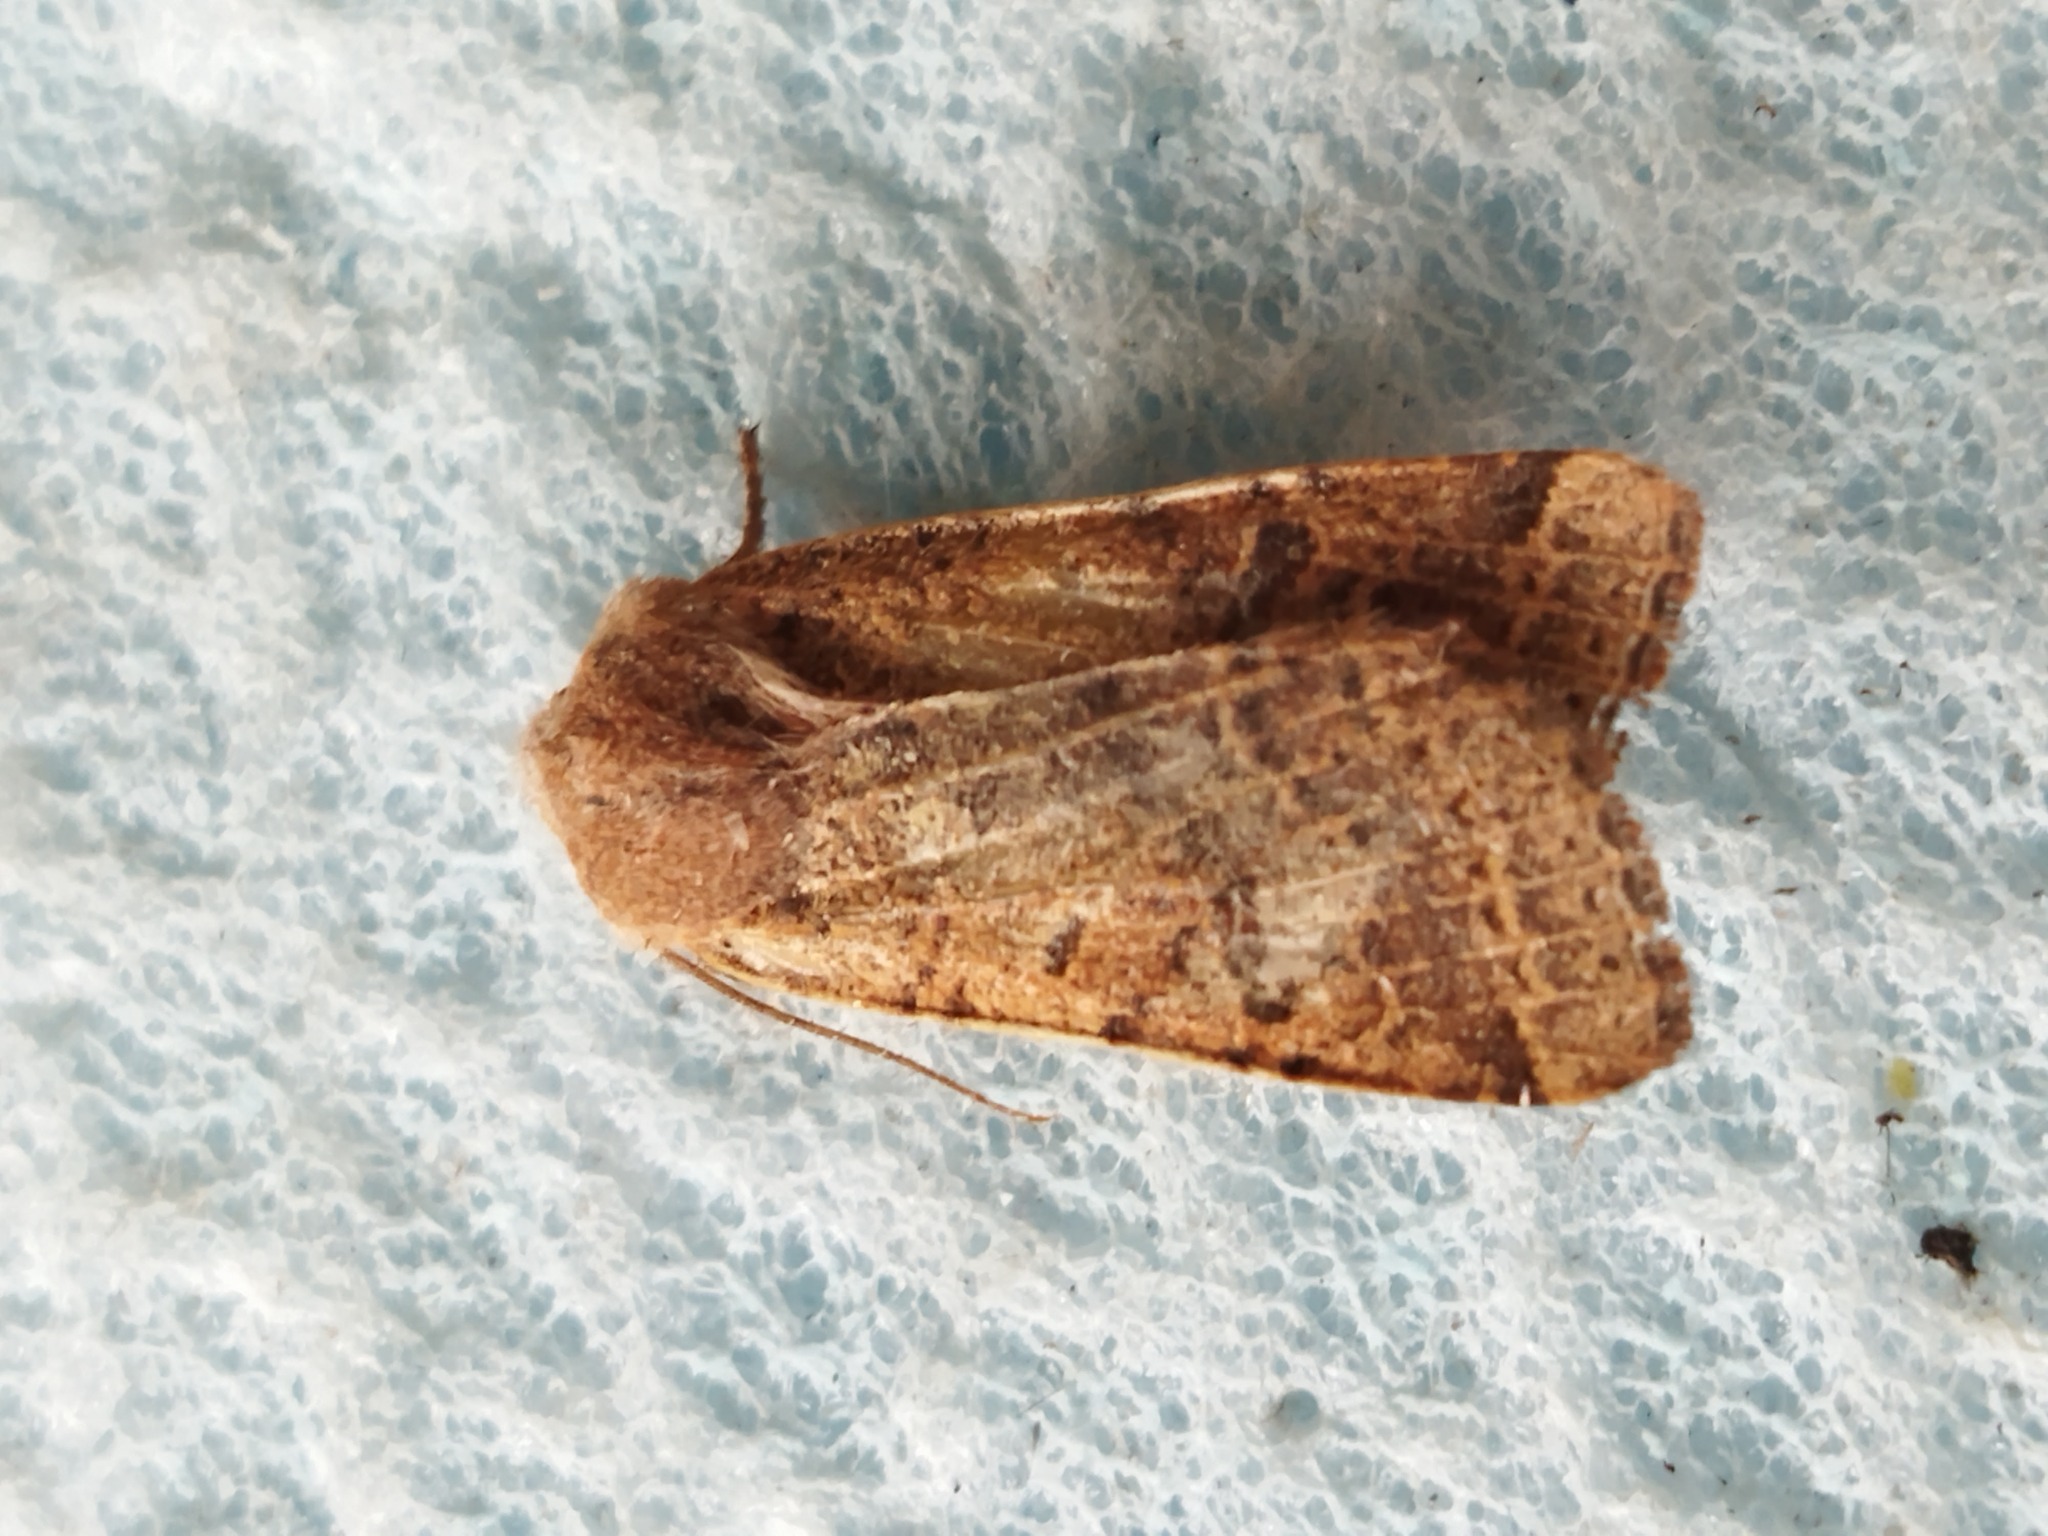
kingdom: Animalia
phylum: Arthropoda
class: Insecta
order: Lepidoptera
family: Noctuidae
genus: Agrochola
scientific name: Agrochola lychnidis
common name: Beaded chestnut
